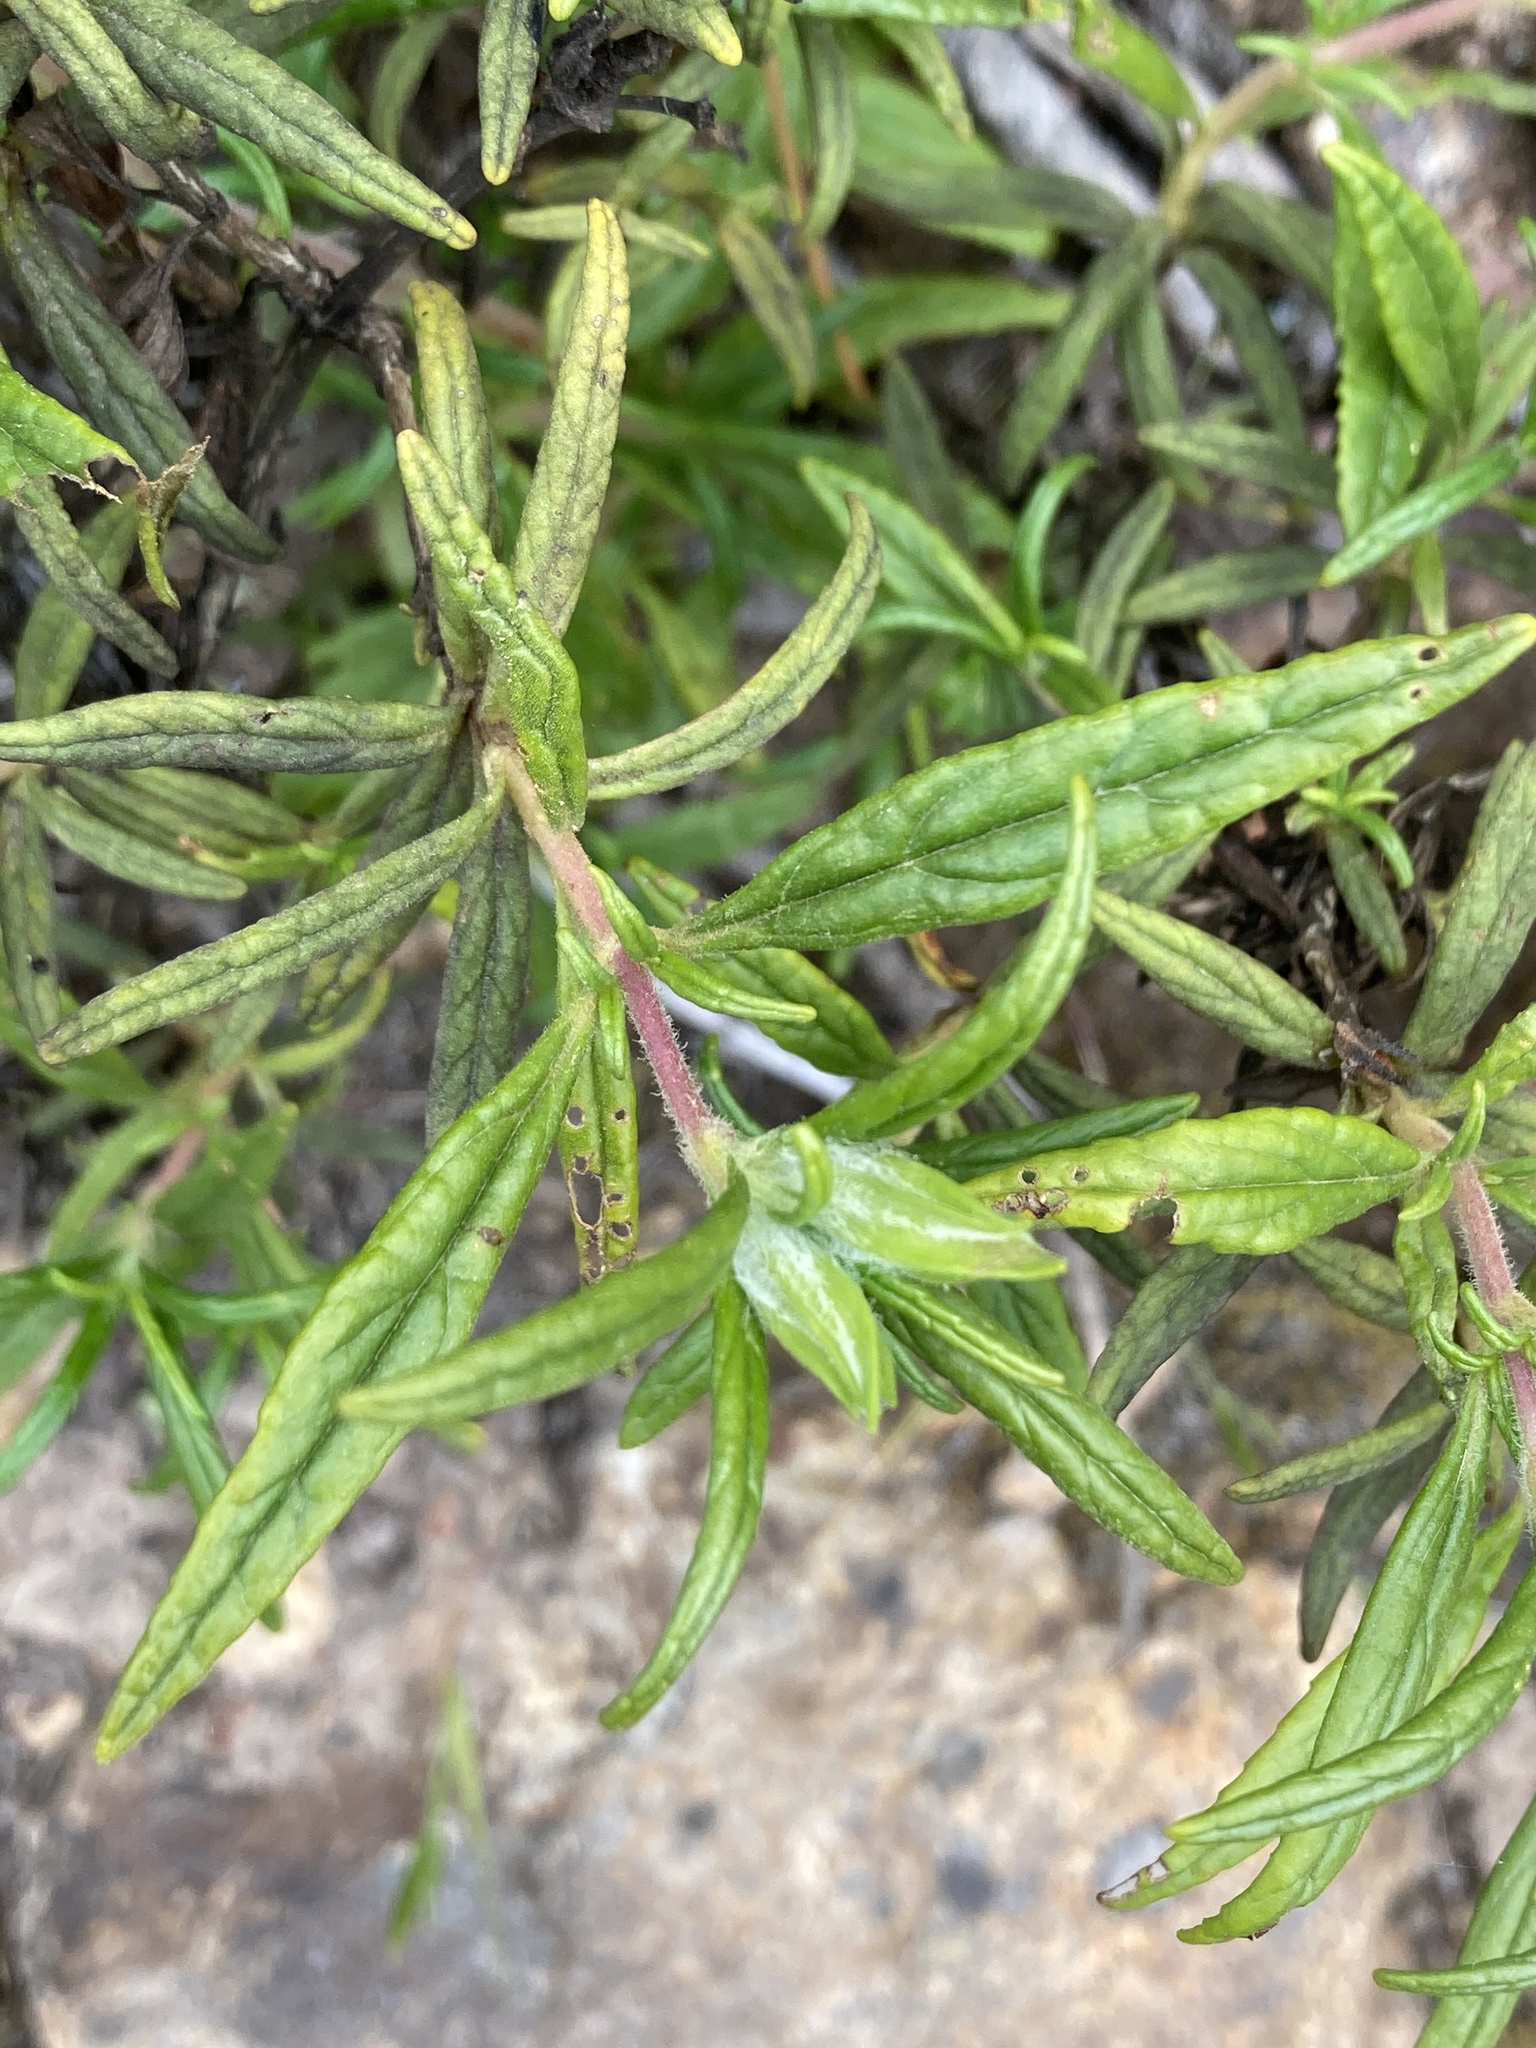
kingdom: Plantae
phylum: Tracheophyta
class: Magnoliopsida
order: Lamiales
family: Phrymaceae
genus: Diplacus
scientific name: Diplacus longiflorus
